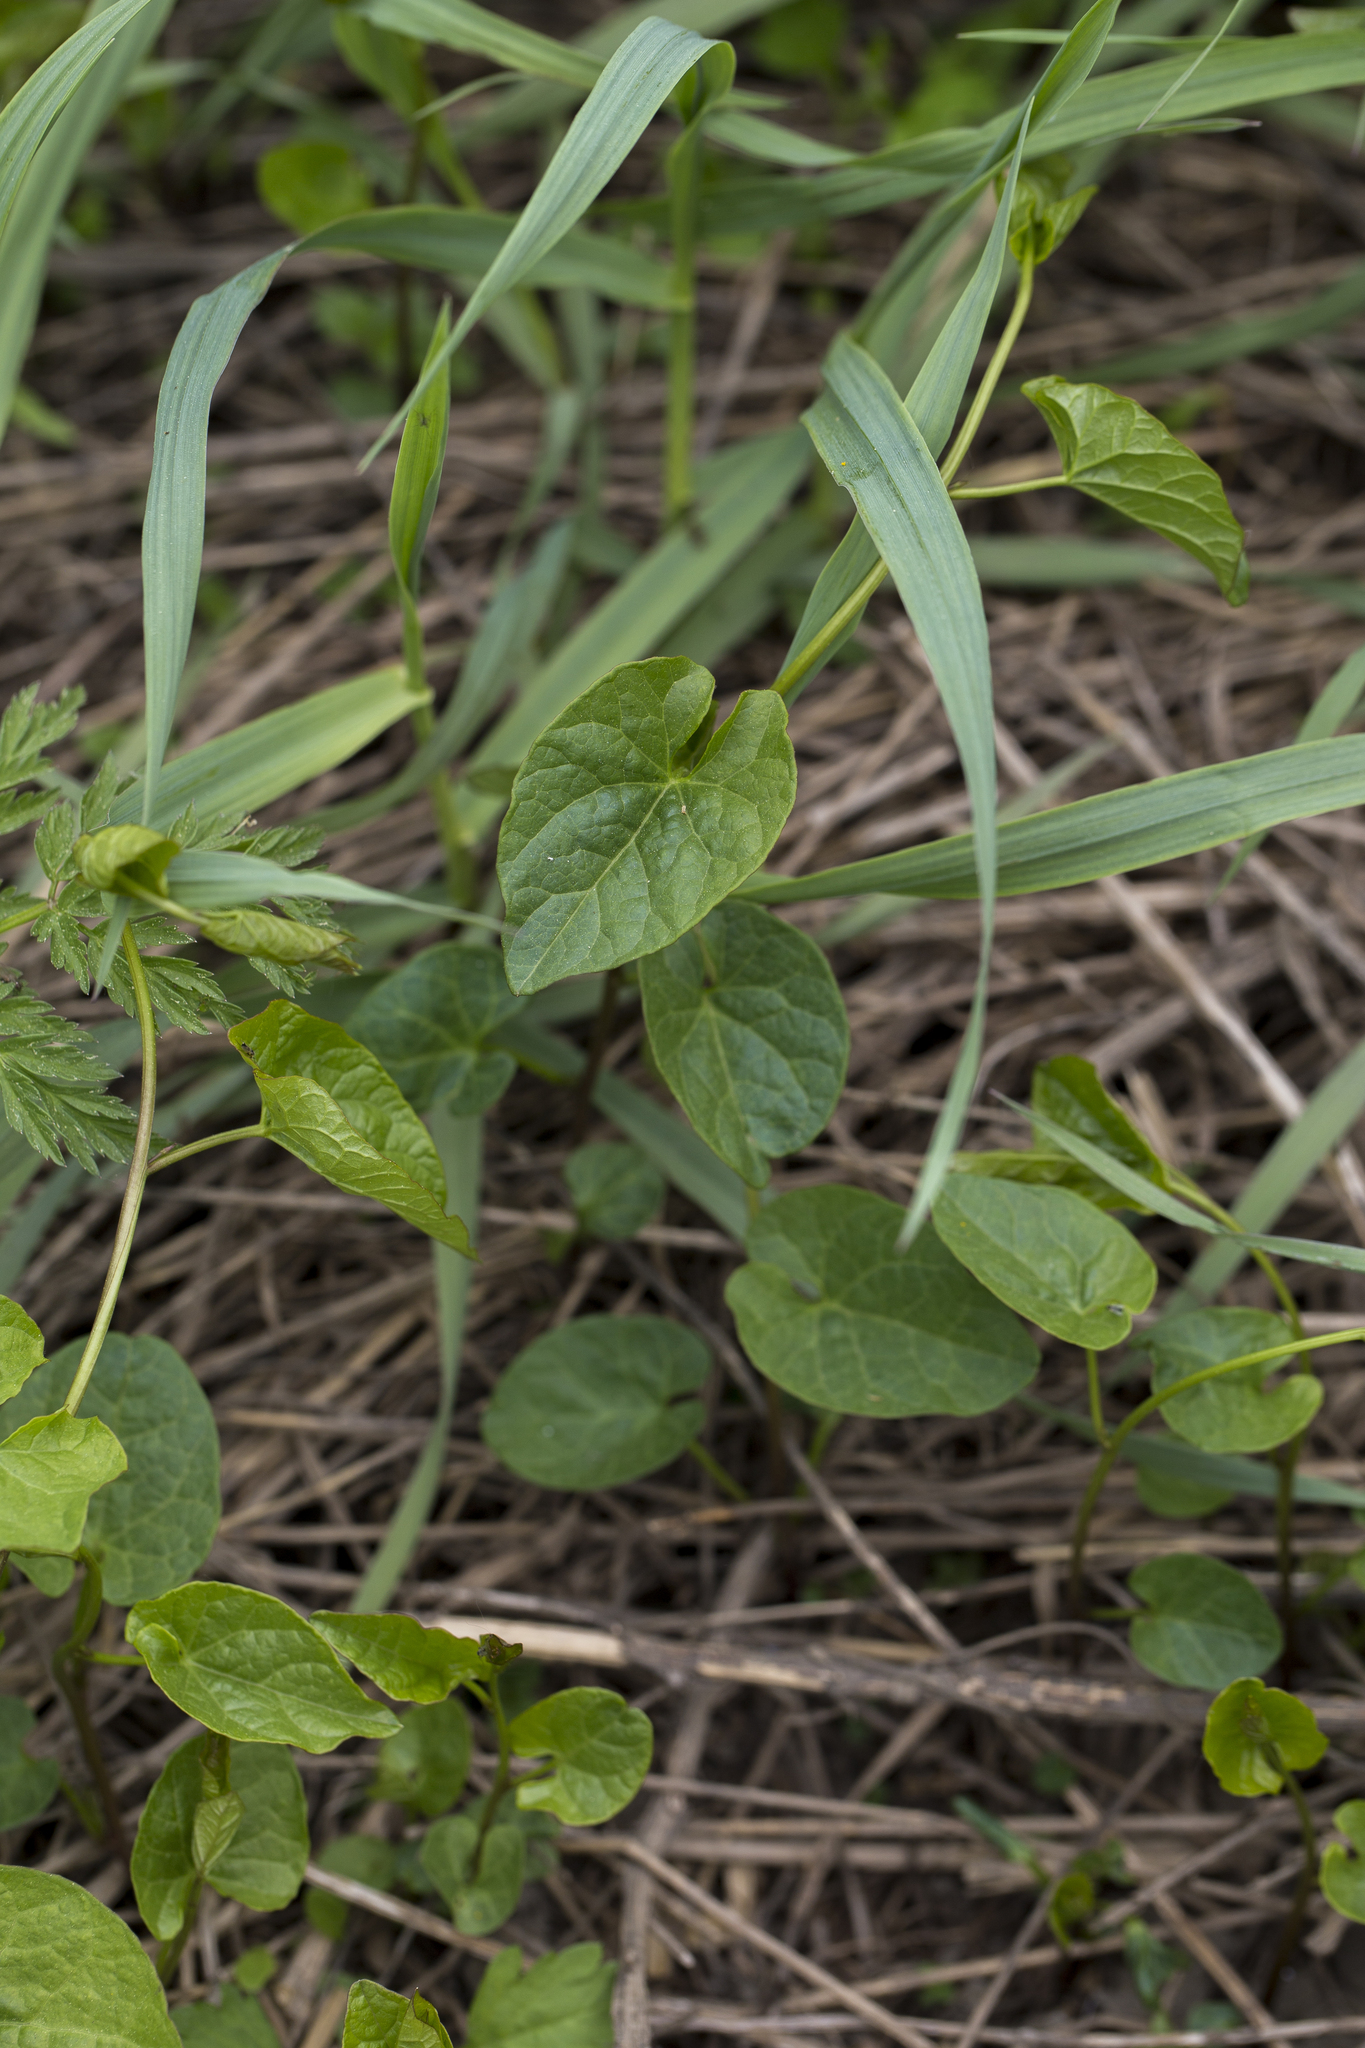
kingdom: Plantae
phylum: Tracheophyta
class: Magnoliopsida
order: Solanales
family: Convolvulaceae
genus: Convolvulus
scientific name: Convolvulus arvensis
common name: Field bindweed
